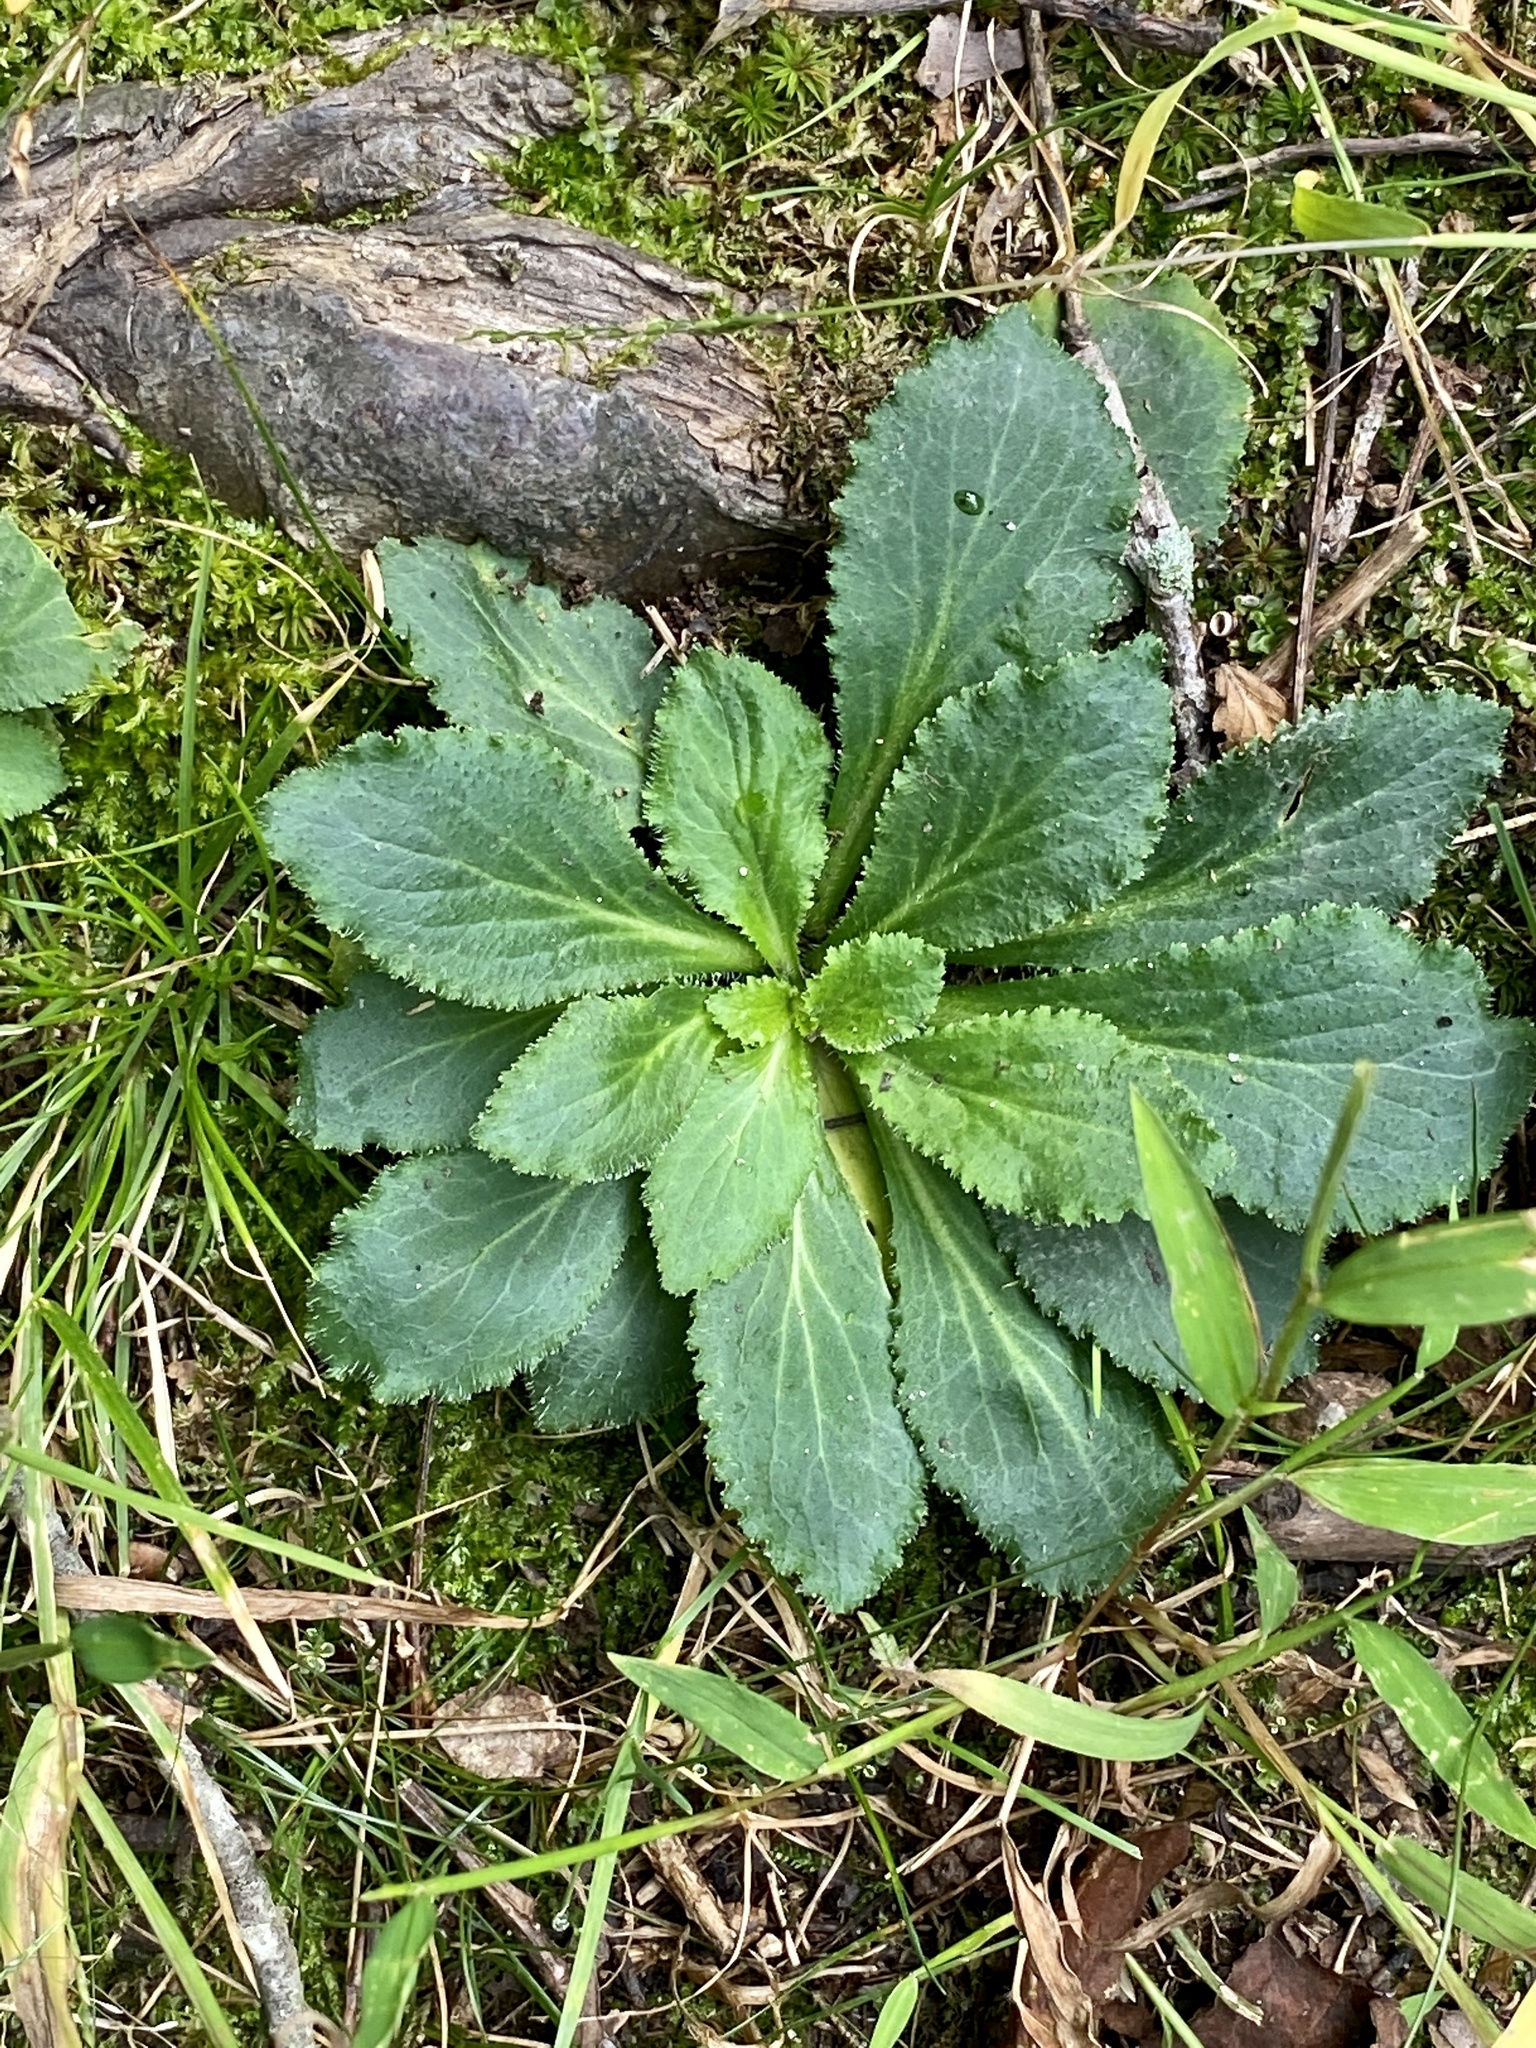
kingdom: Plantae
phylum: Tracheophyta
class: Magnoliopsida
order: Asterales
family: Campanulaceae
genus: Lobelia
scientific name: Lobelia inflata
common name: Indian tobacco
